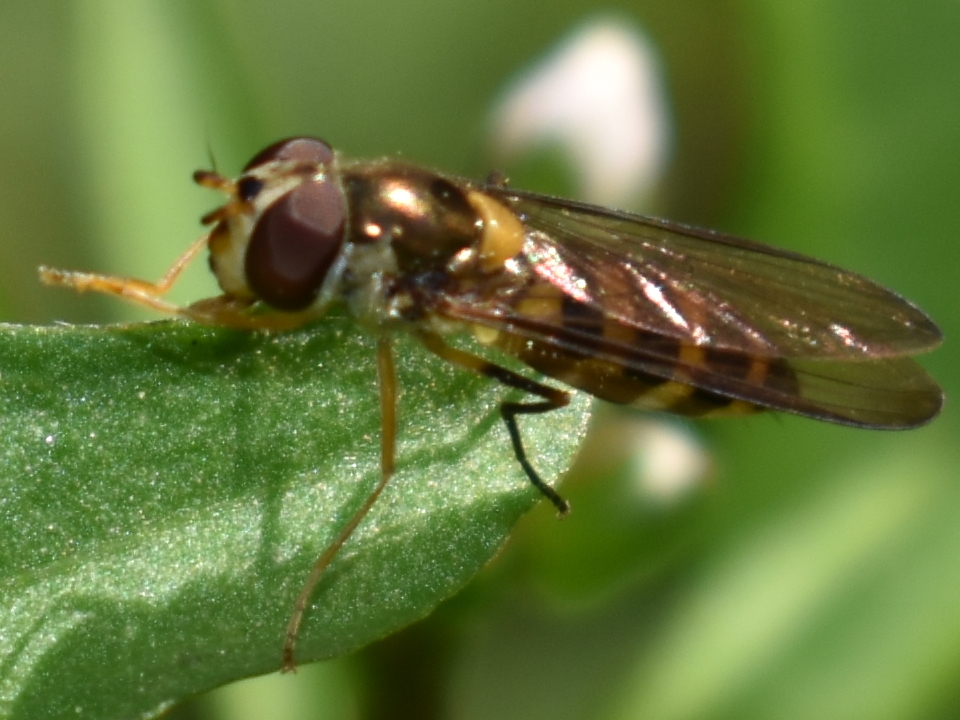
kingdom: Animalia
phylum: Arthropoda
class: Insecta
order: Diptera
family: Syrphidae
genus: Toxomerus
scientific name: Toxomerus occidentalis
